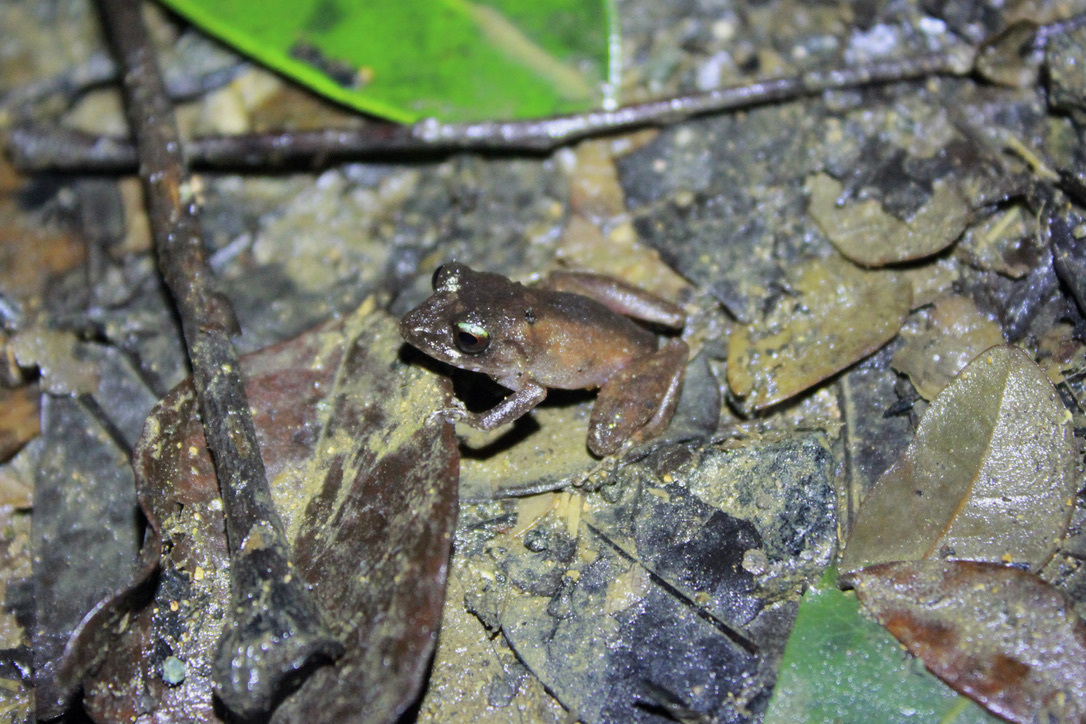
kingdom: Animalia
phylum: Chordata
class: Amphibia
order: Anura
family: Craugastoridae
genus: Pristimantis
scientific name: Pristimantis urichi
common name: Lesser antilles robber frog
